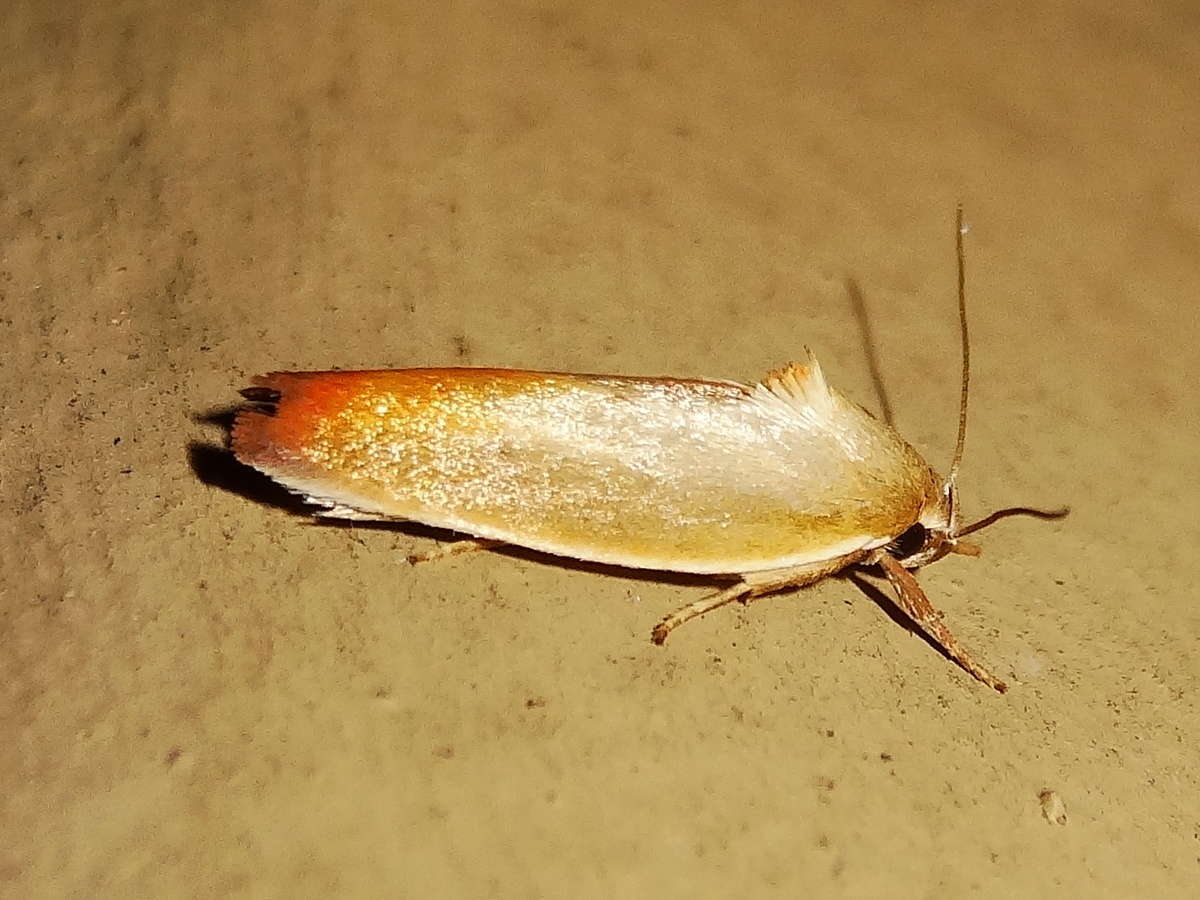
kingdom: Animalia
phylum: Arthropoda
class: Insecta
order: Lepidoptera
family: Oecophoridae
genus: Ptyoptila
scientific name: Ptyoptila matutinella
